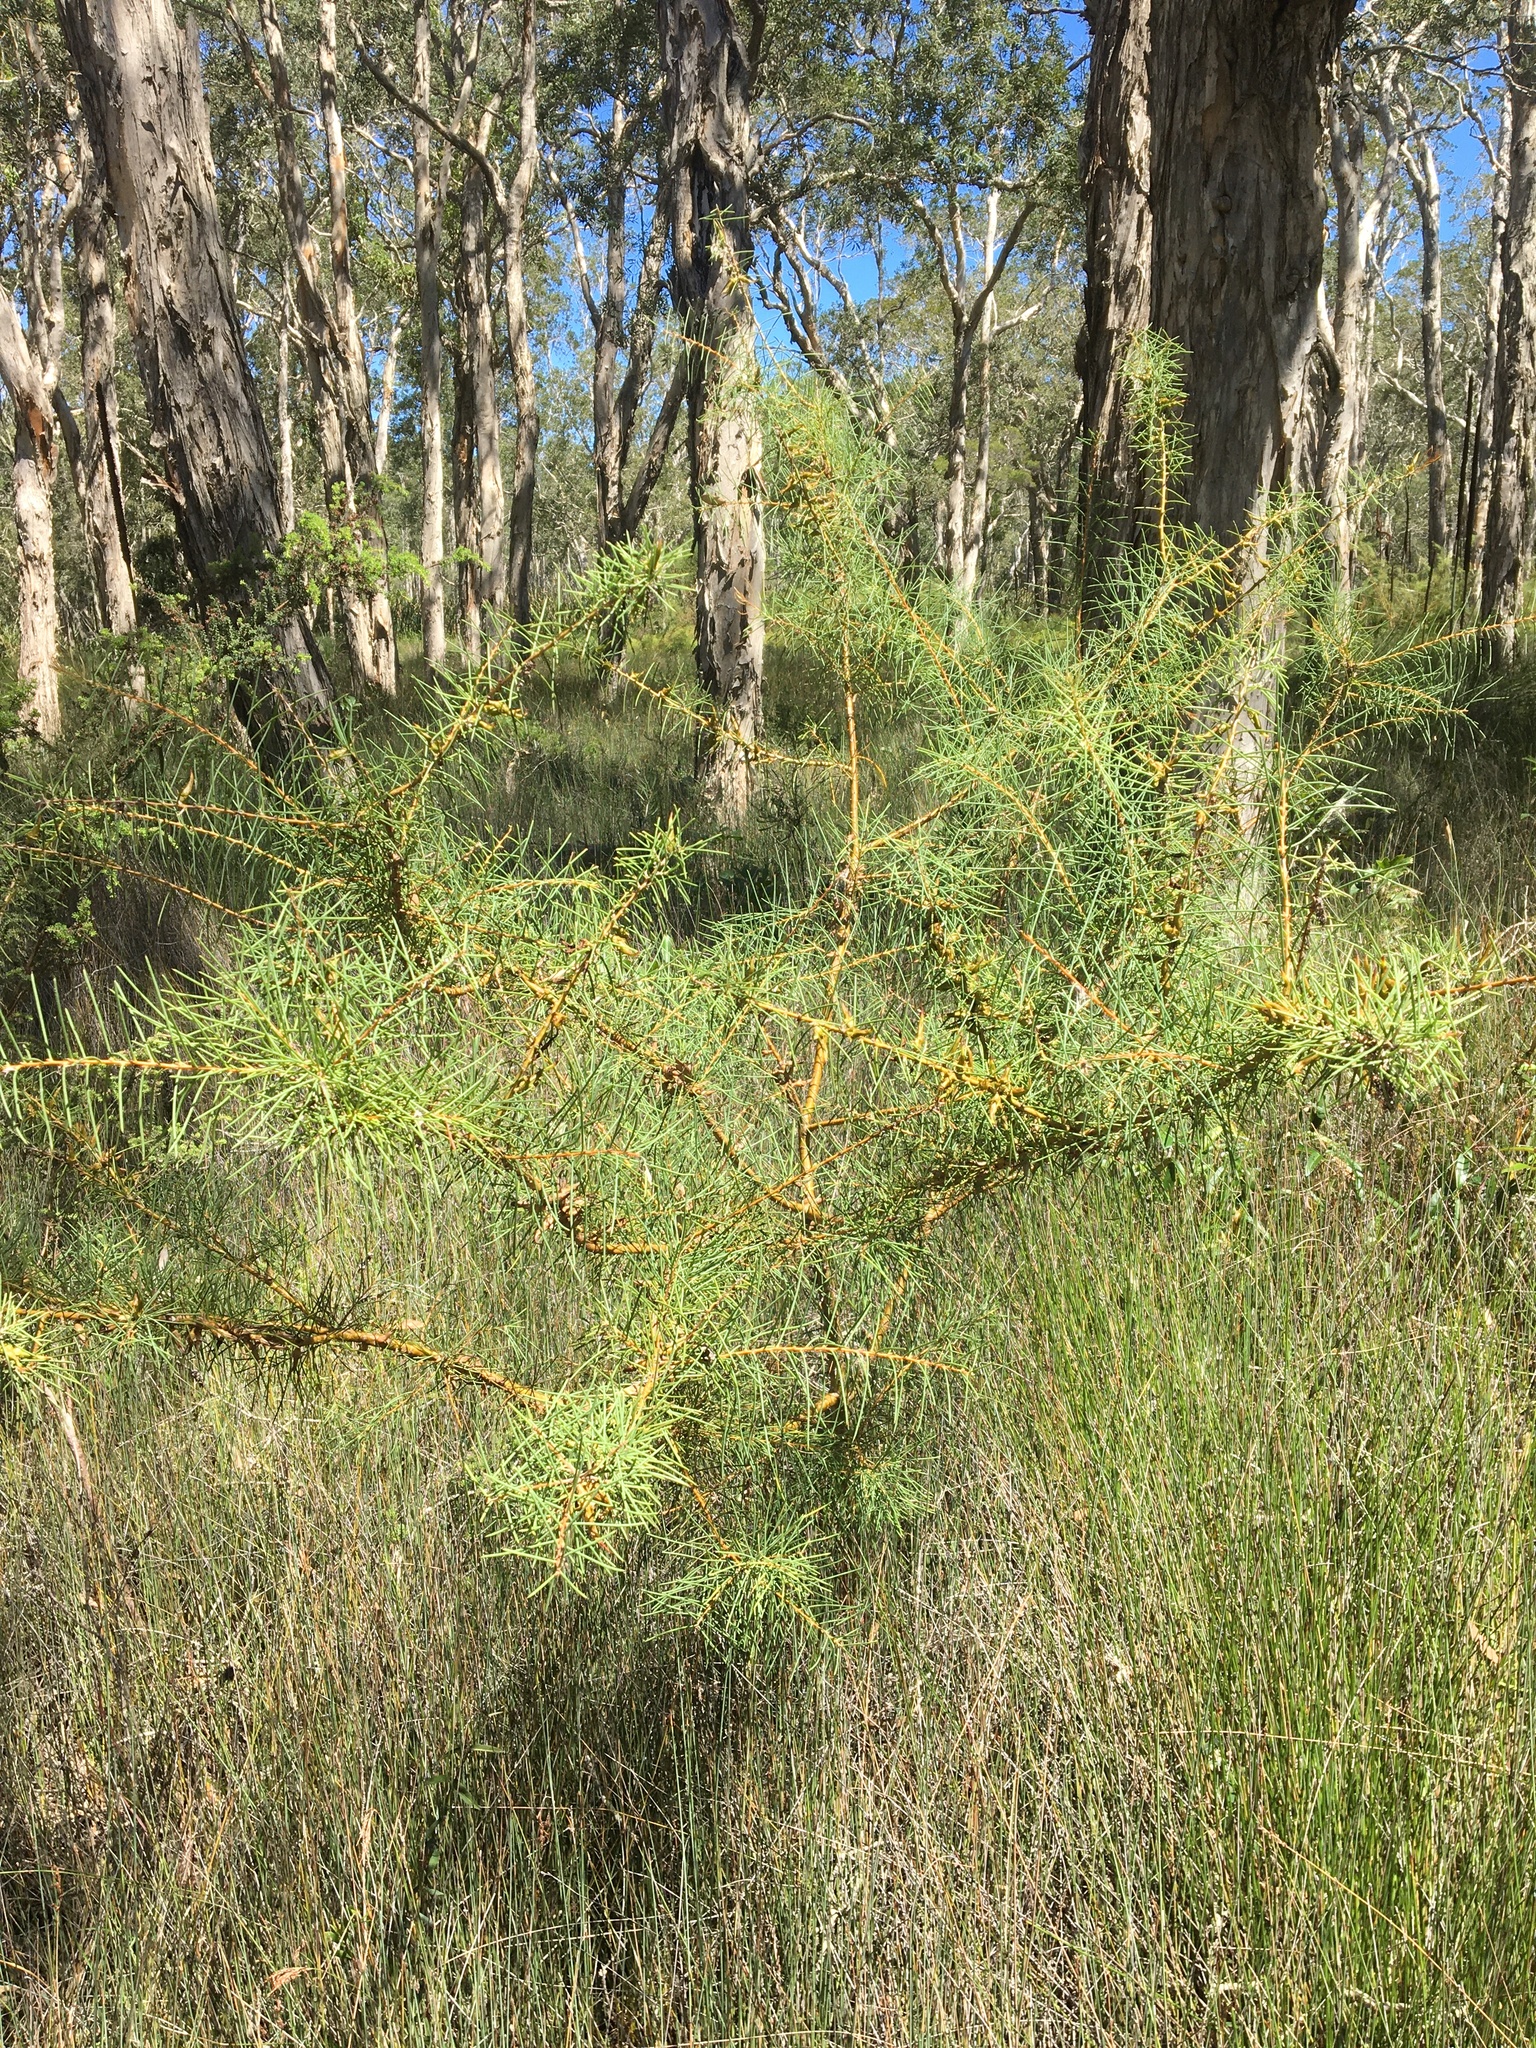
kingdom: Plantae
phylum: Tracheophyta
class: Magnoliopsida
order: Proteales
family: Proteaceae
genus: Hakea
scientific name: Hakea teretifolia
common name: Dagger hakea
